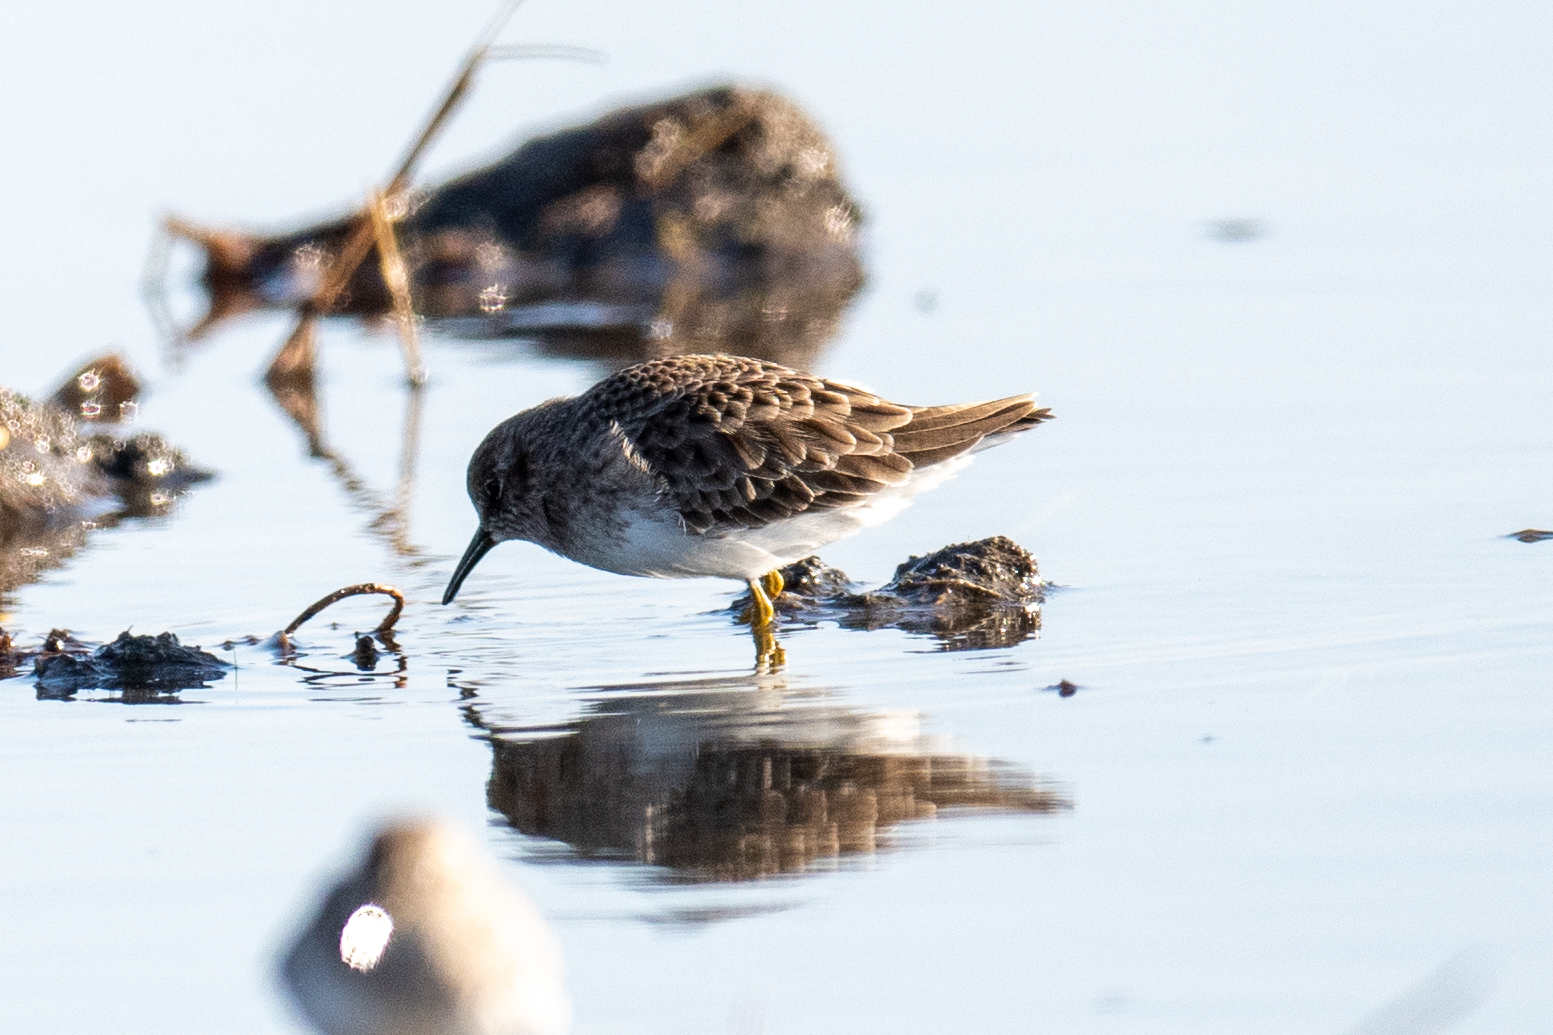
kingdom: Animalia
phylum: Chordata
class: Aves
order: Charadriiformes
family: Scolopacidae
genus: Calidris
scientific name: Calidris minutilla
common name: Least sandpiper
